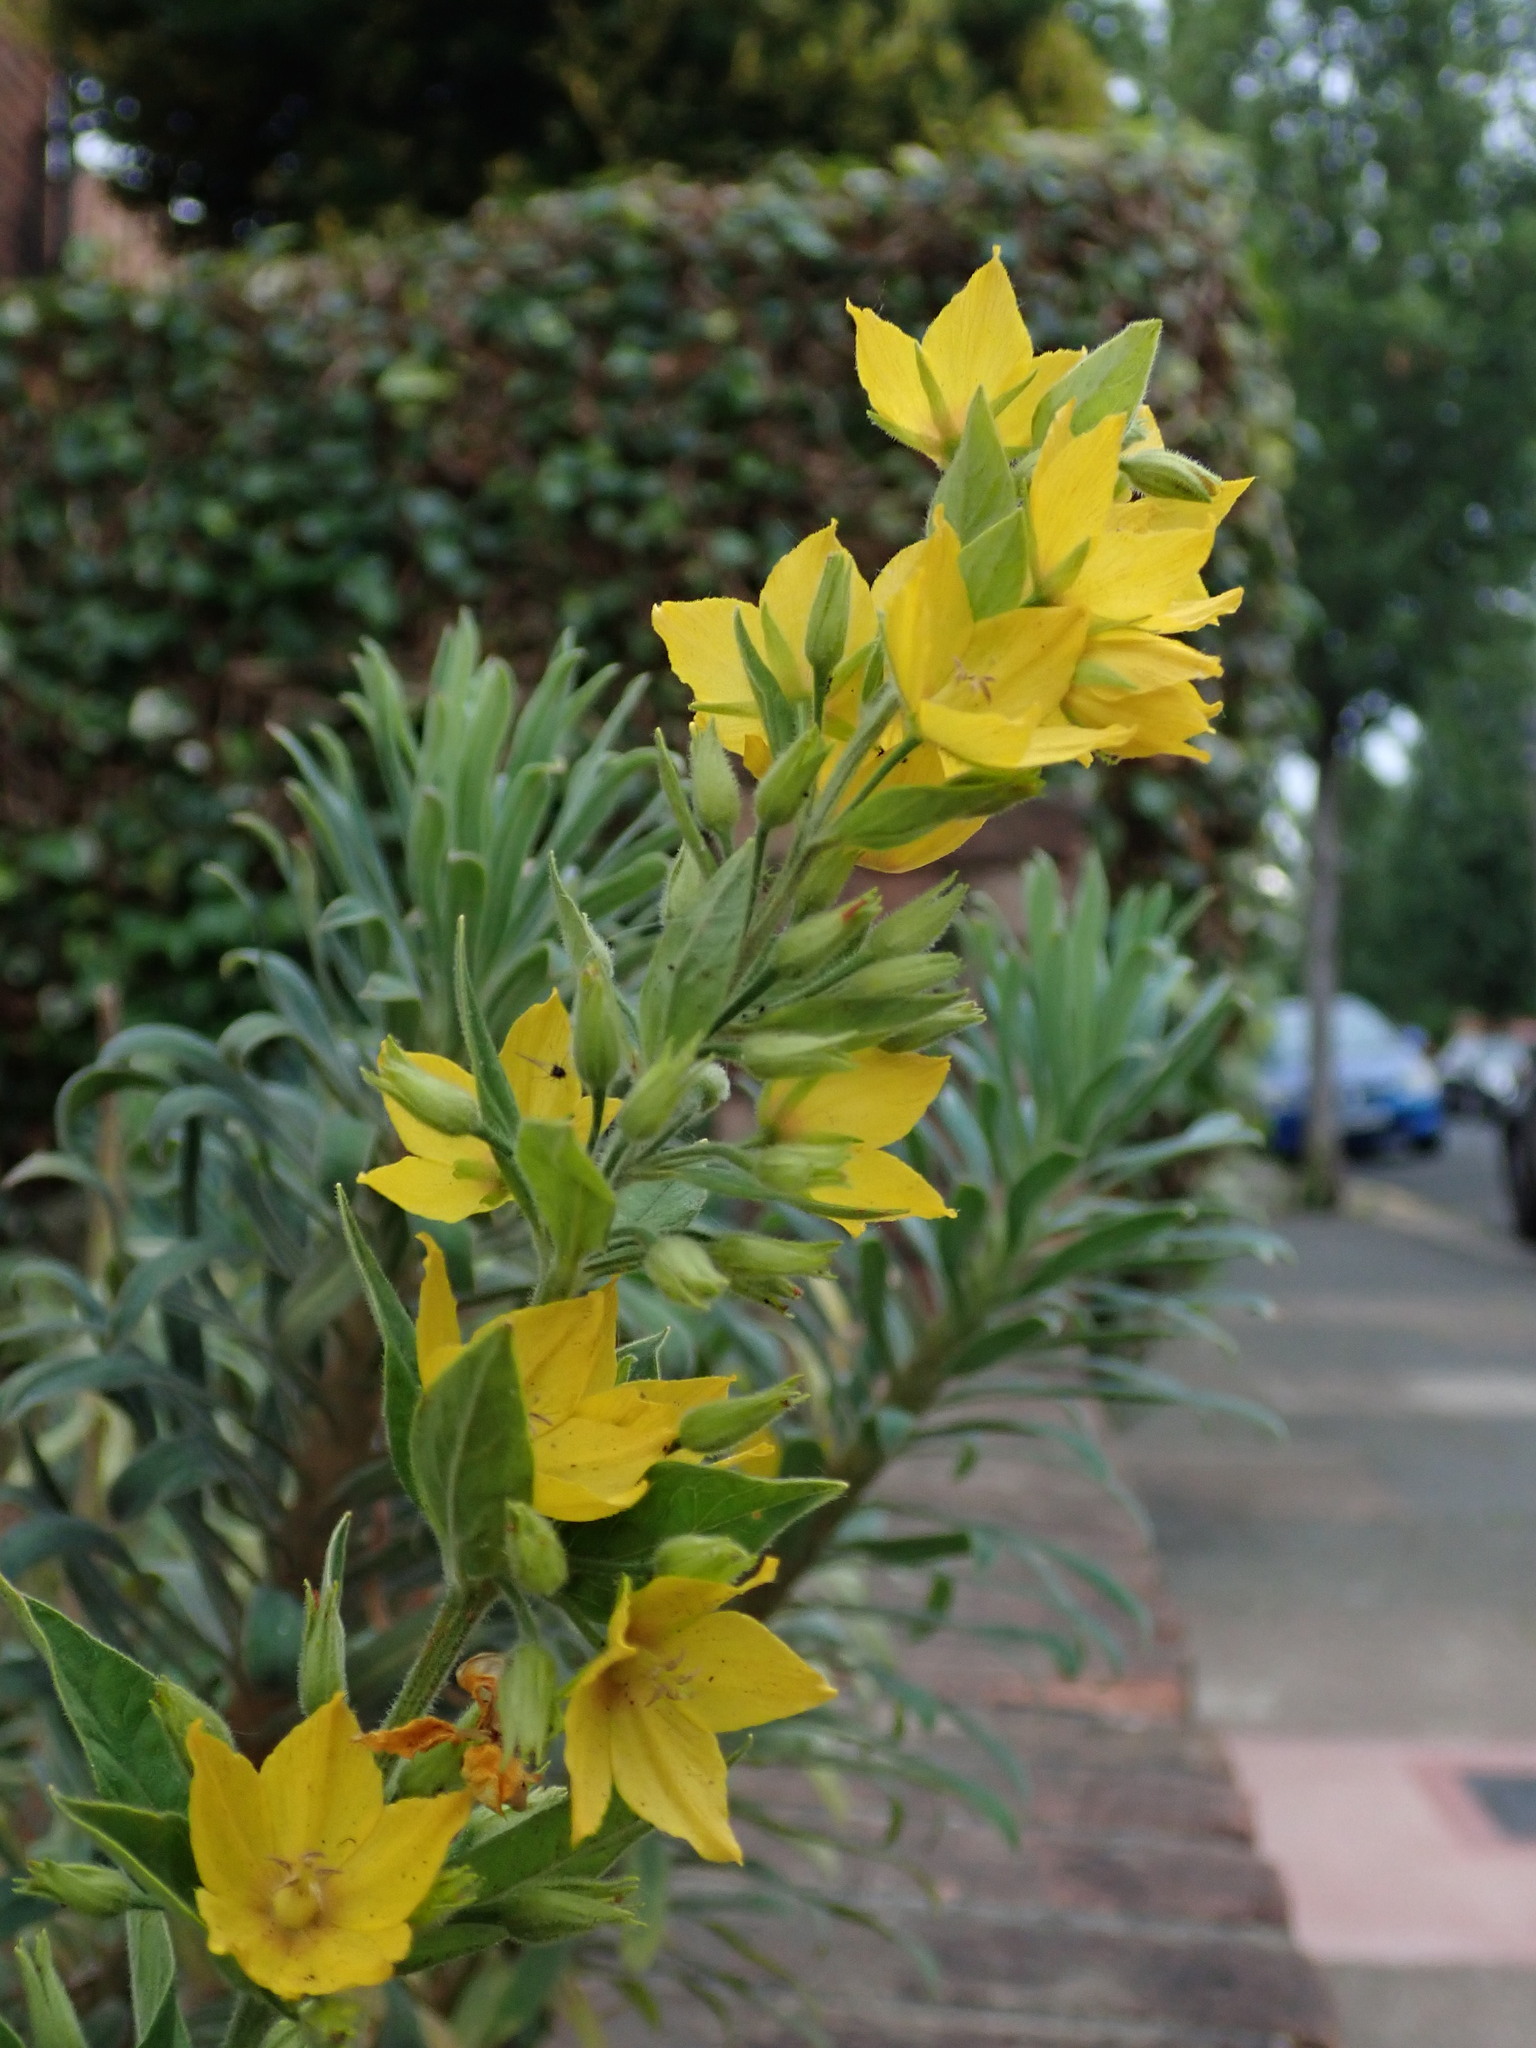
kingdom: Plantae
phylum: Tracheophyta
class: Magnoliopsida
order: Ericales
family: Primulaceae
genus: Lysimachia
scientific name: Lysimachia punctata
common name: Dotted loosestrife
